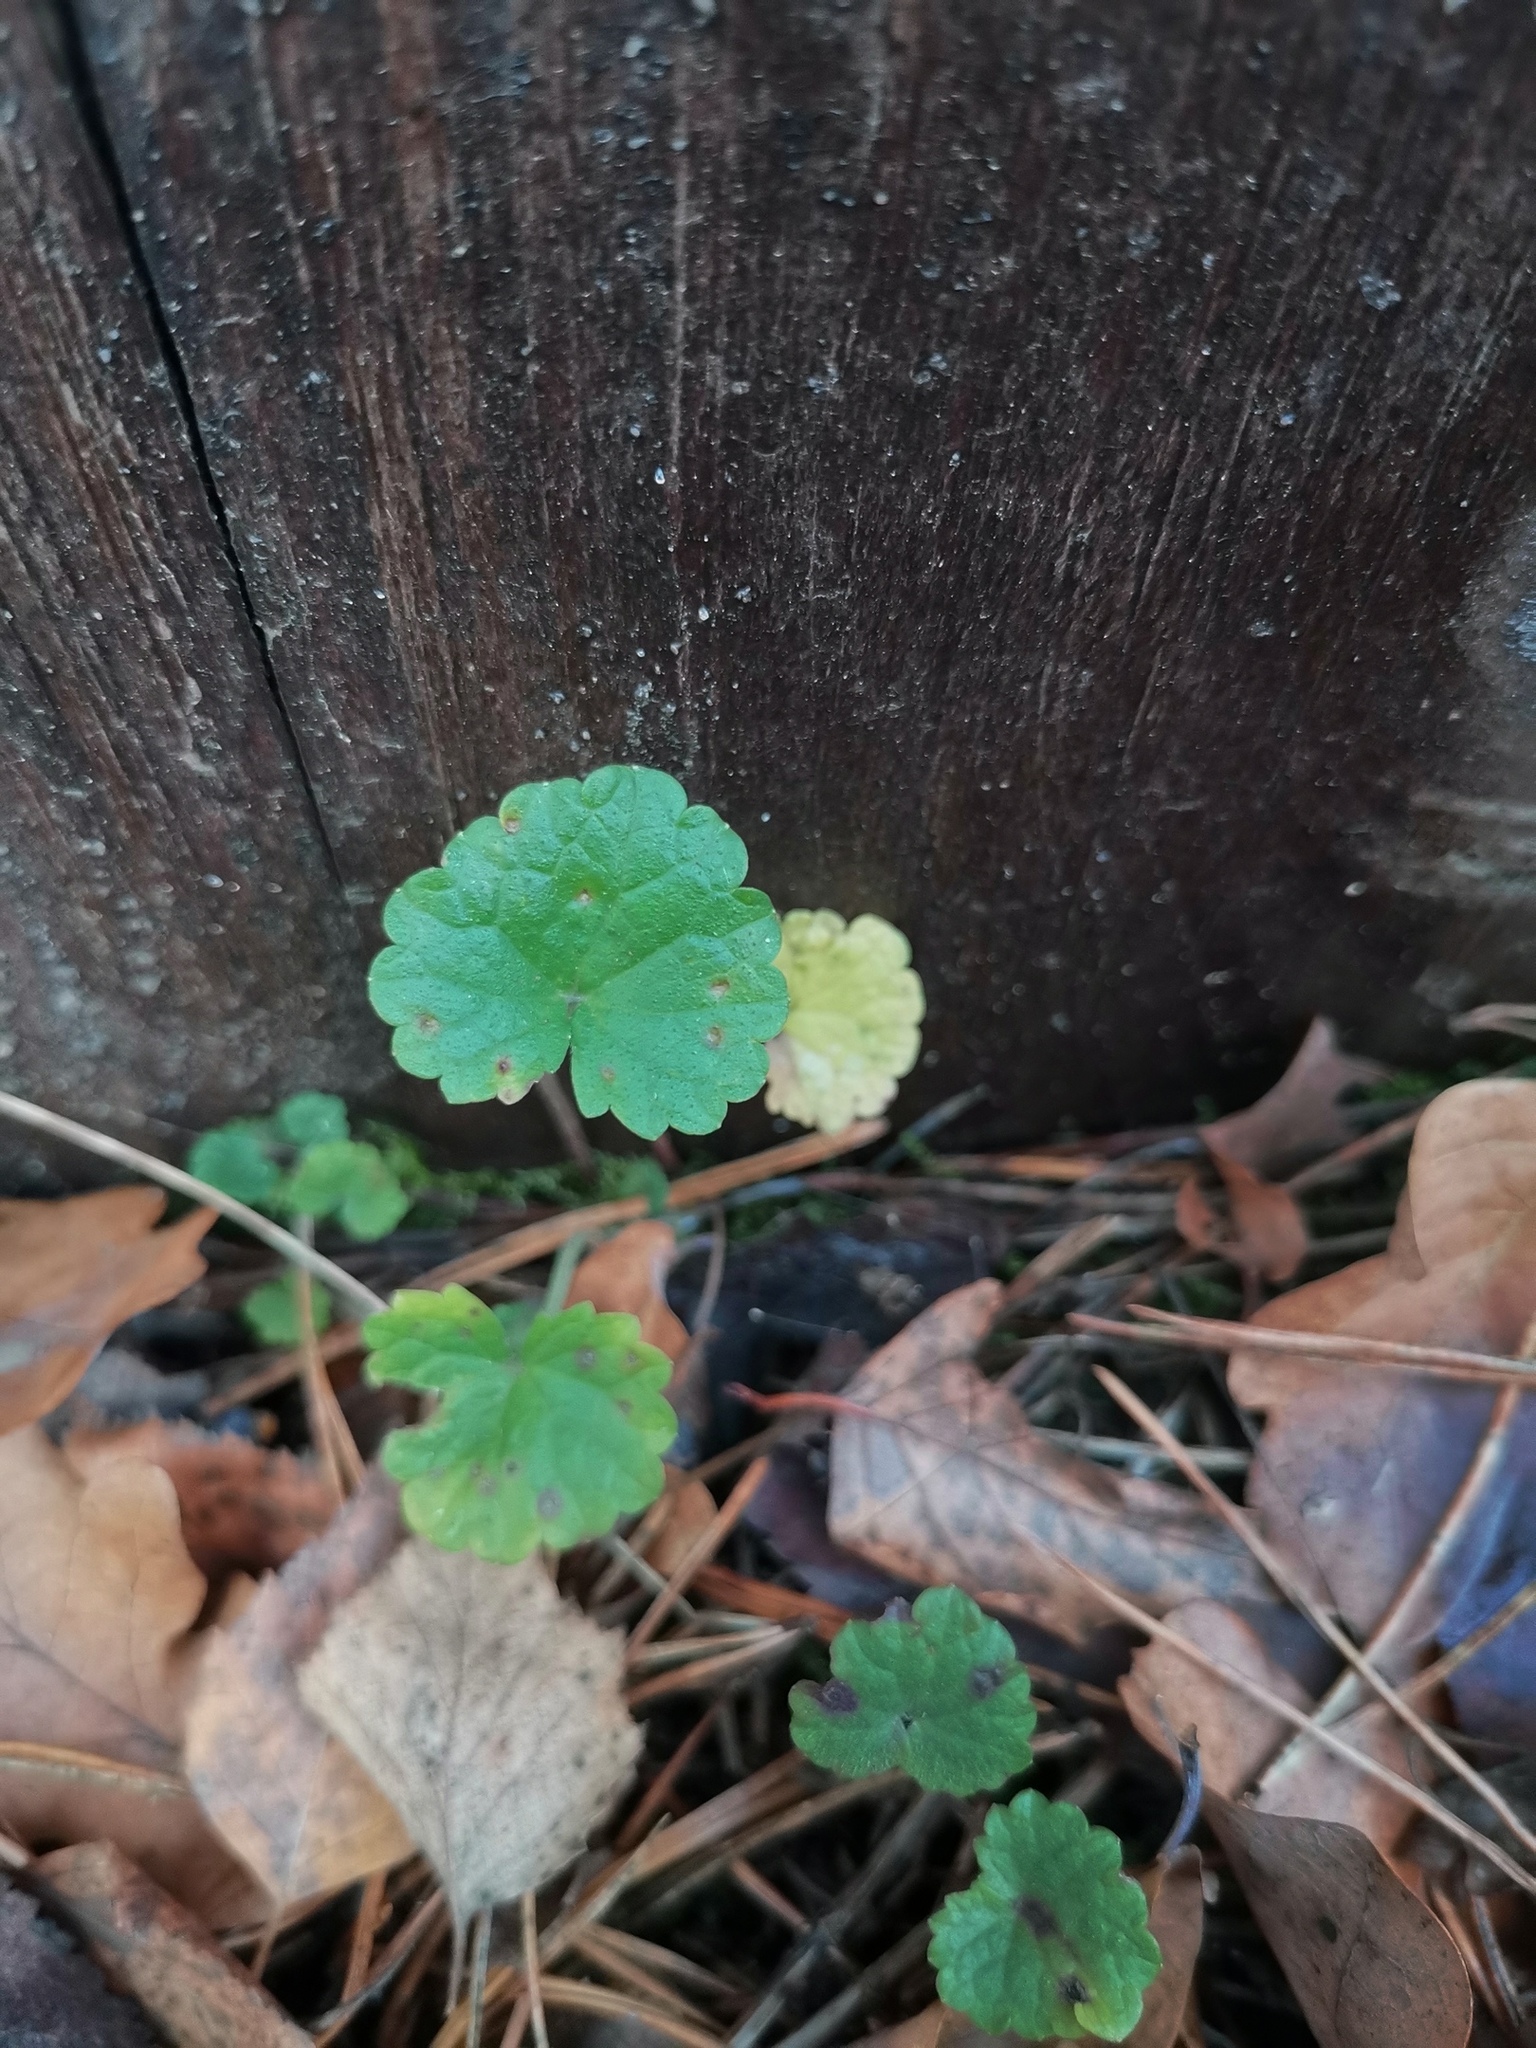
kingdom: Plantae
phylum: Tracheophyta
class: Magnoliopsida
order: Lamiales
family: Lamiaceae
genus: Glechoma
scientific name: Glechoma hederacea
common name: Ground ivy
